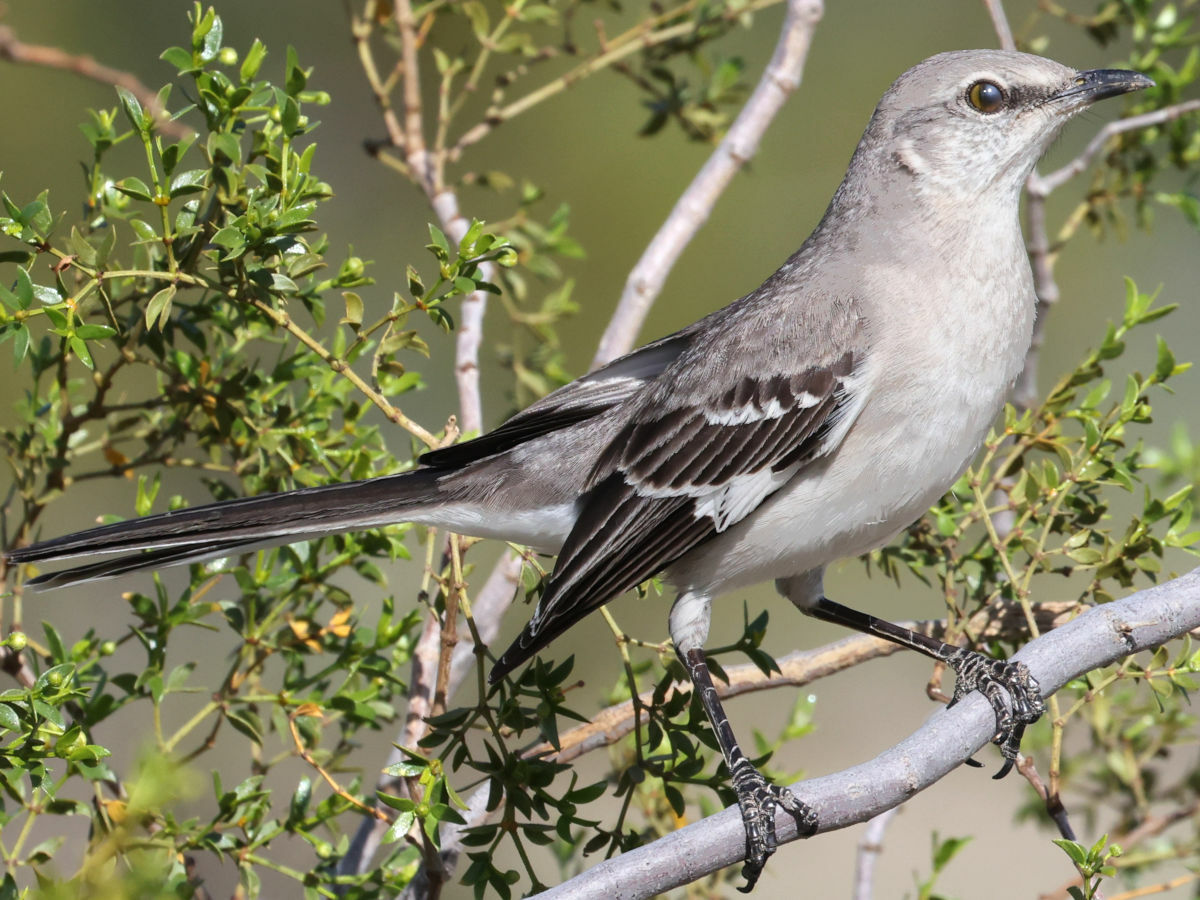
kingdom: Animalia
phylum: Chordata
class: Aves
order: Passeriformes
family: Mimidae
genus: Mimus
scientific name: Mimus polyglottos
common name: Northern mockingbird
